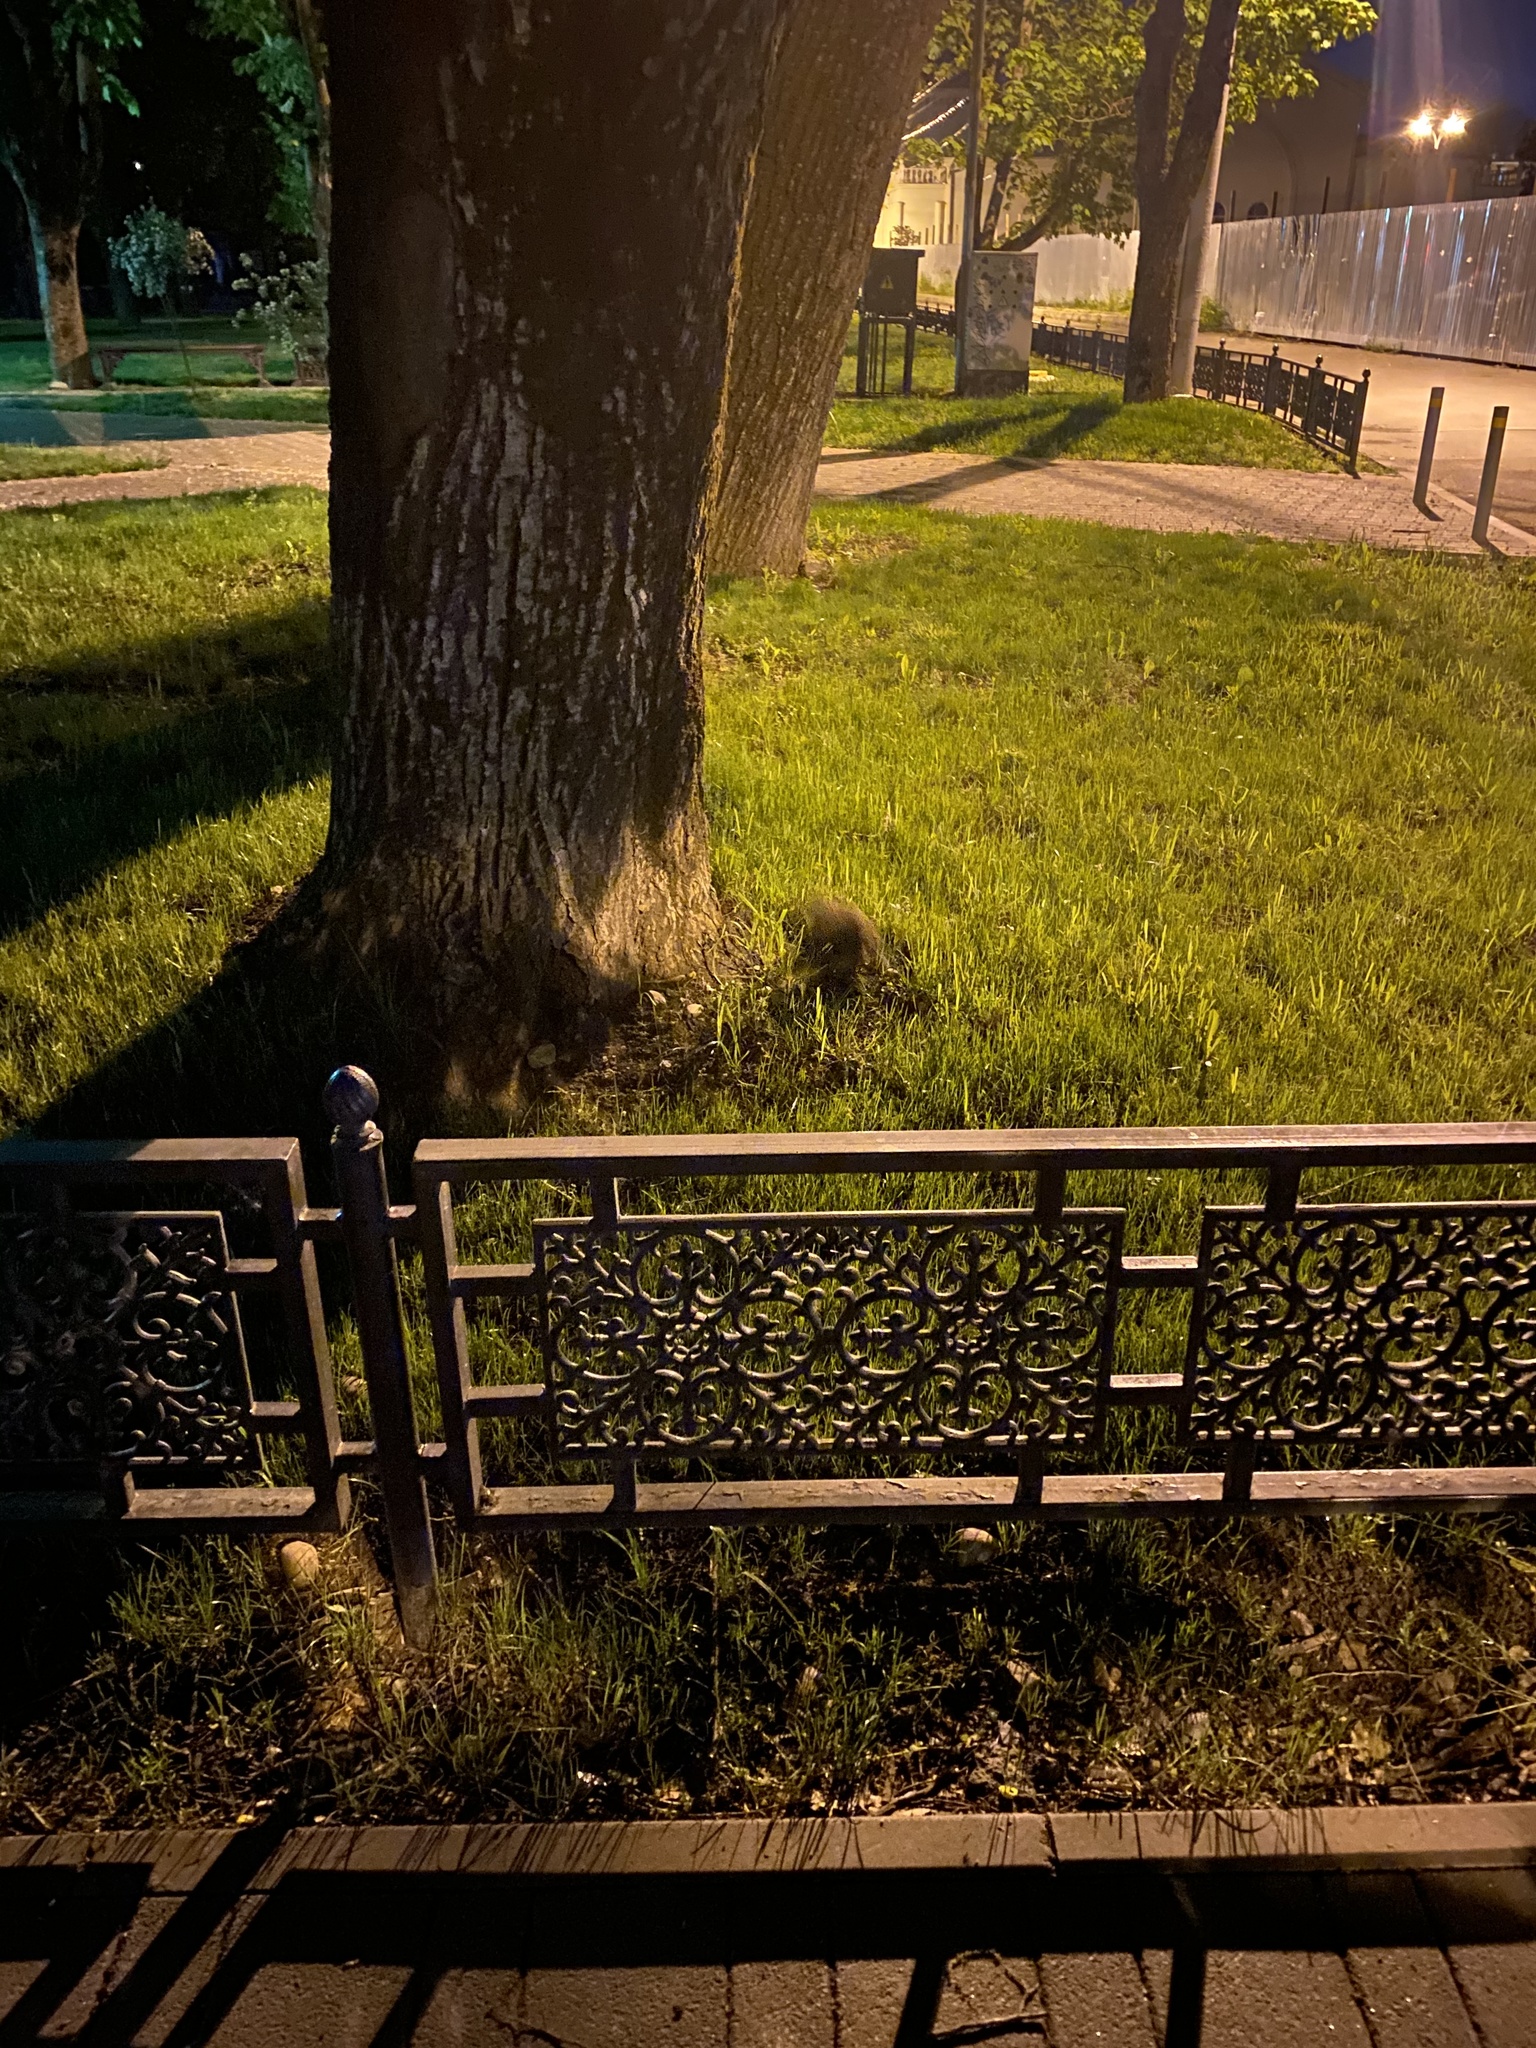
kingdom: Animalia
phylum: Chordata
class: Mammalia
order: Erinaceomorpha
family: Erinaceidae
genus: Erinaceus
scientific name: Erinaceus roumanicus
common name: Northern white-breasted hedgehog
